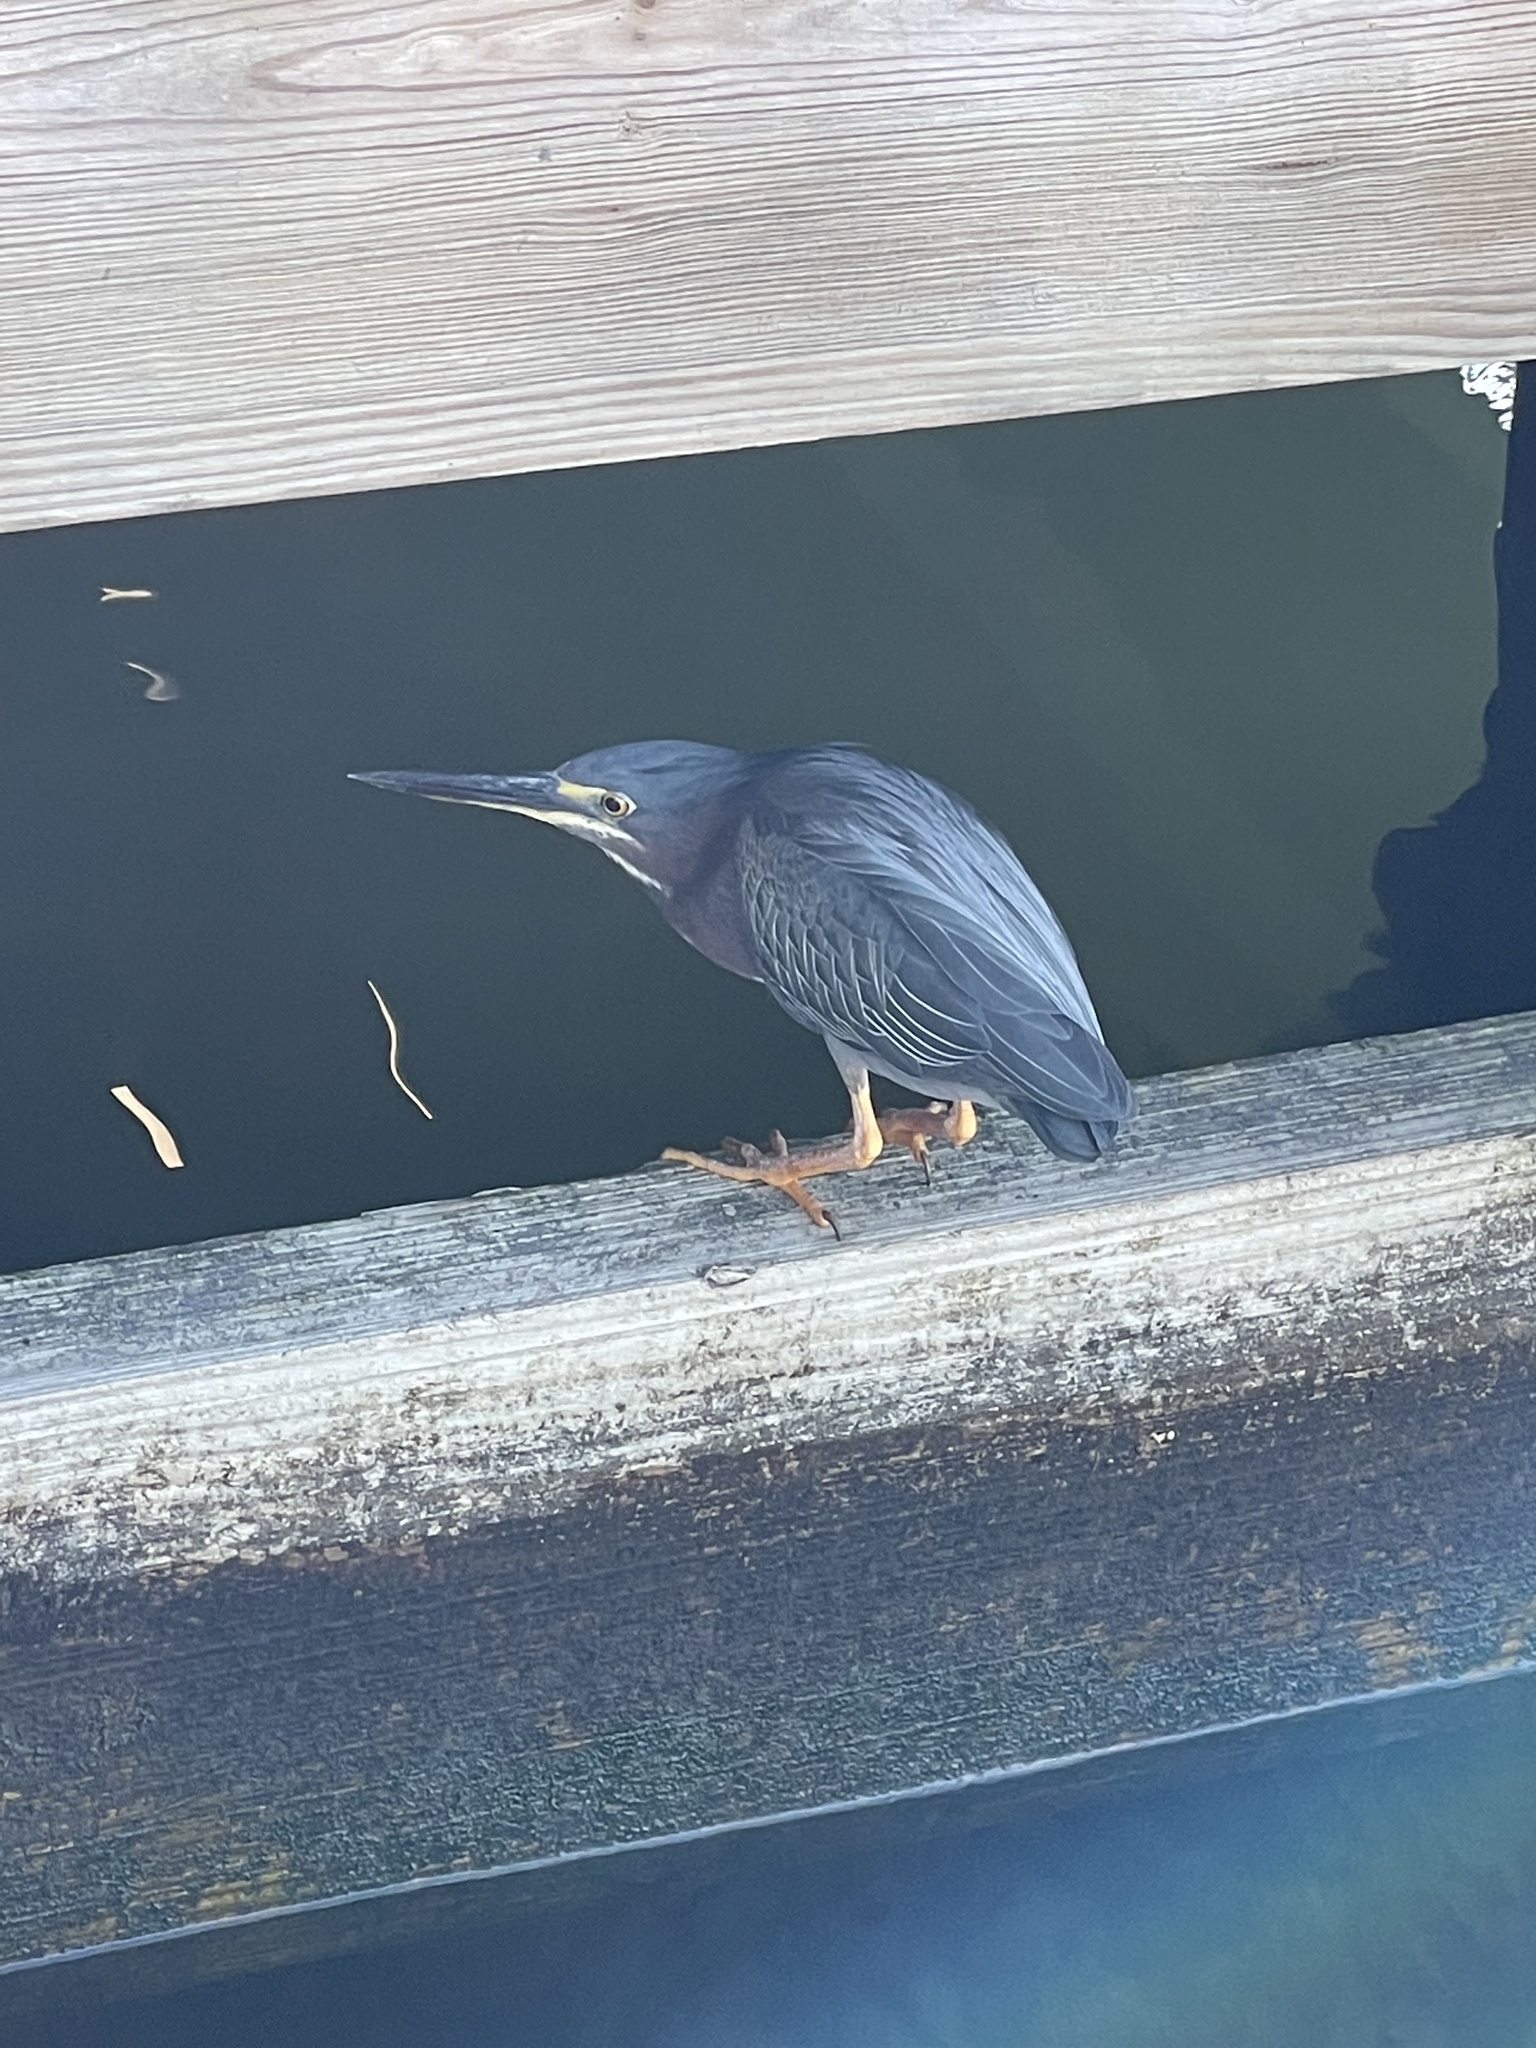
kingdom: Animalia
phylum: Chordata
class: Aves
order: Pelecaniformes
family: Ardeidae
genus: Butorides
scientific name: Butorides virescens
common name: Green heron
